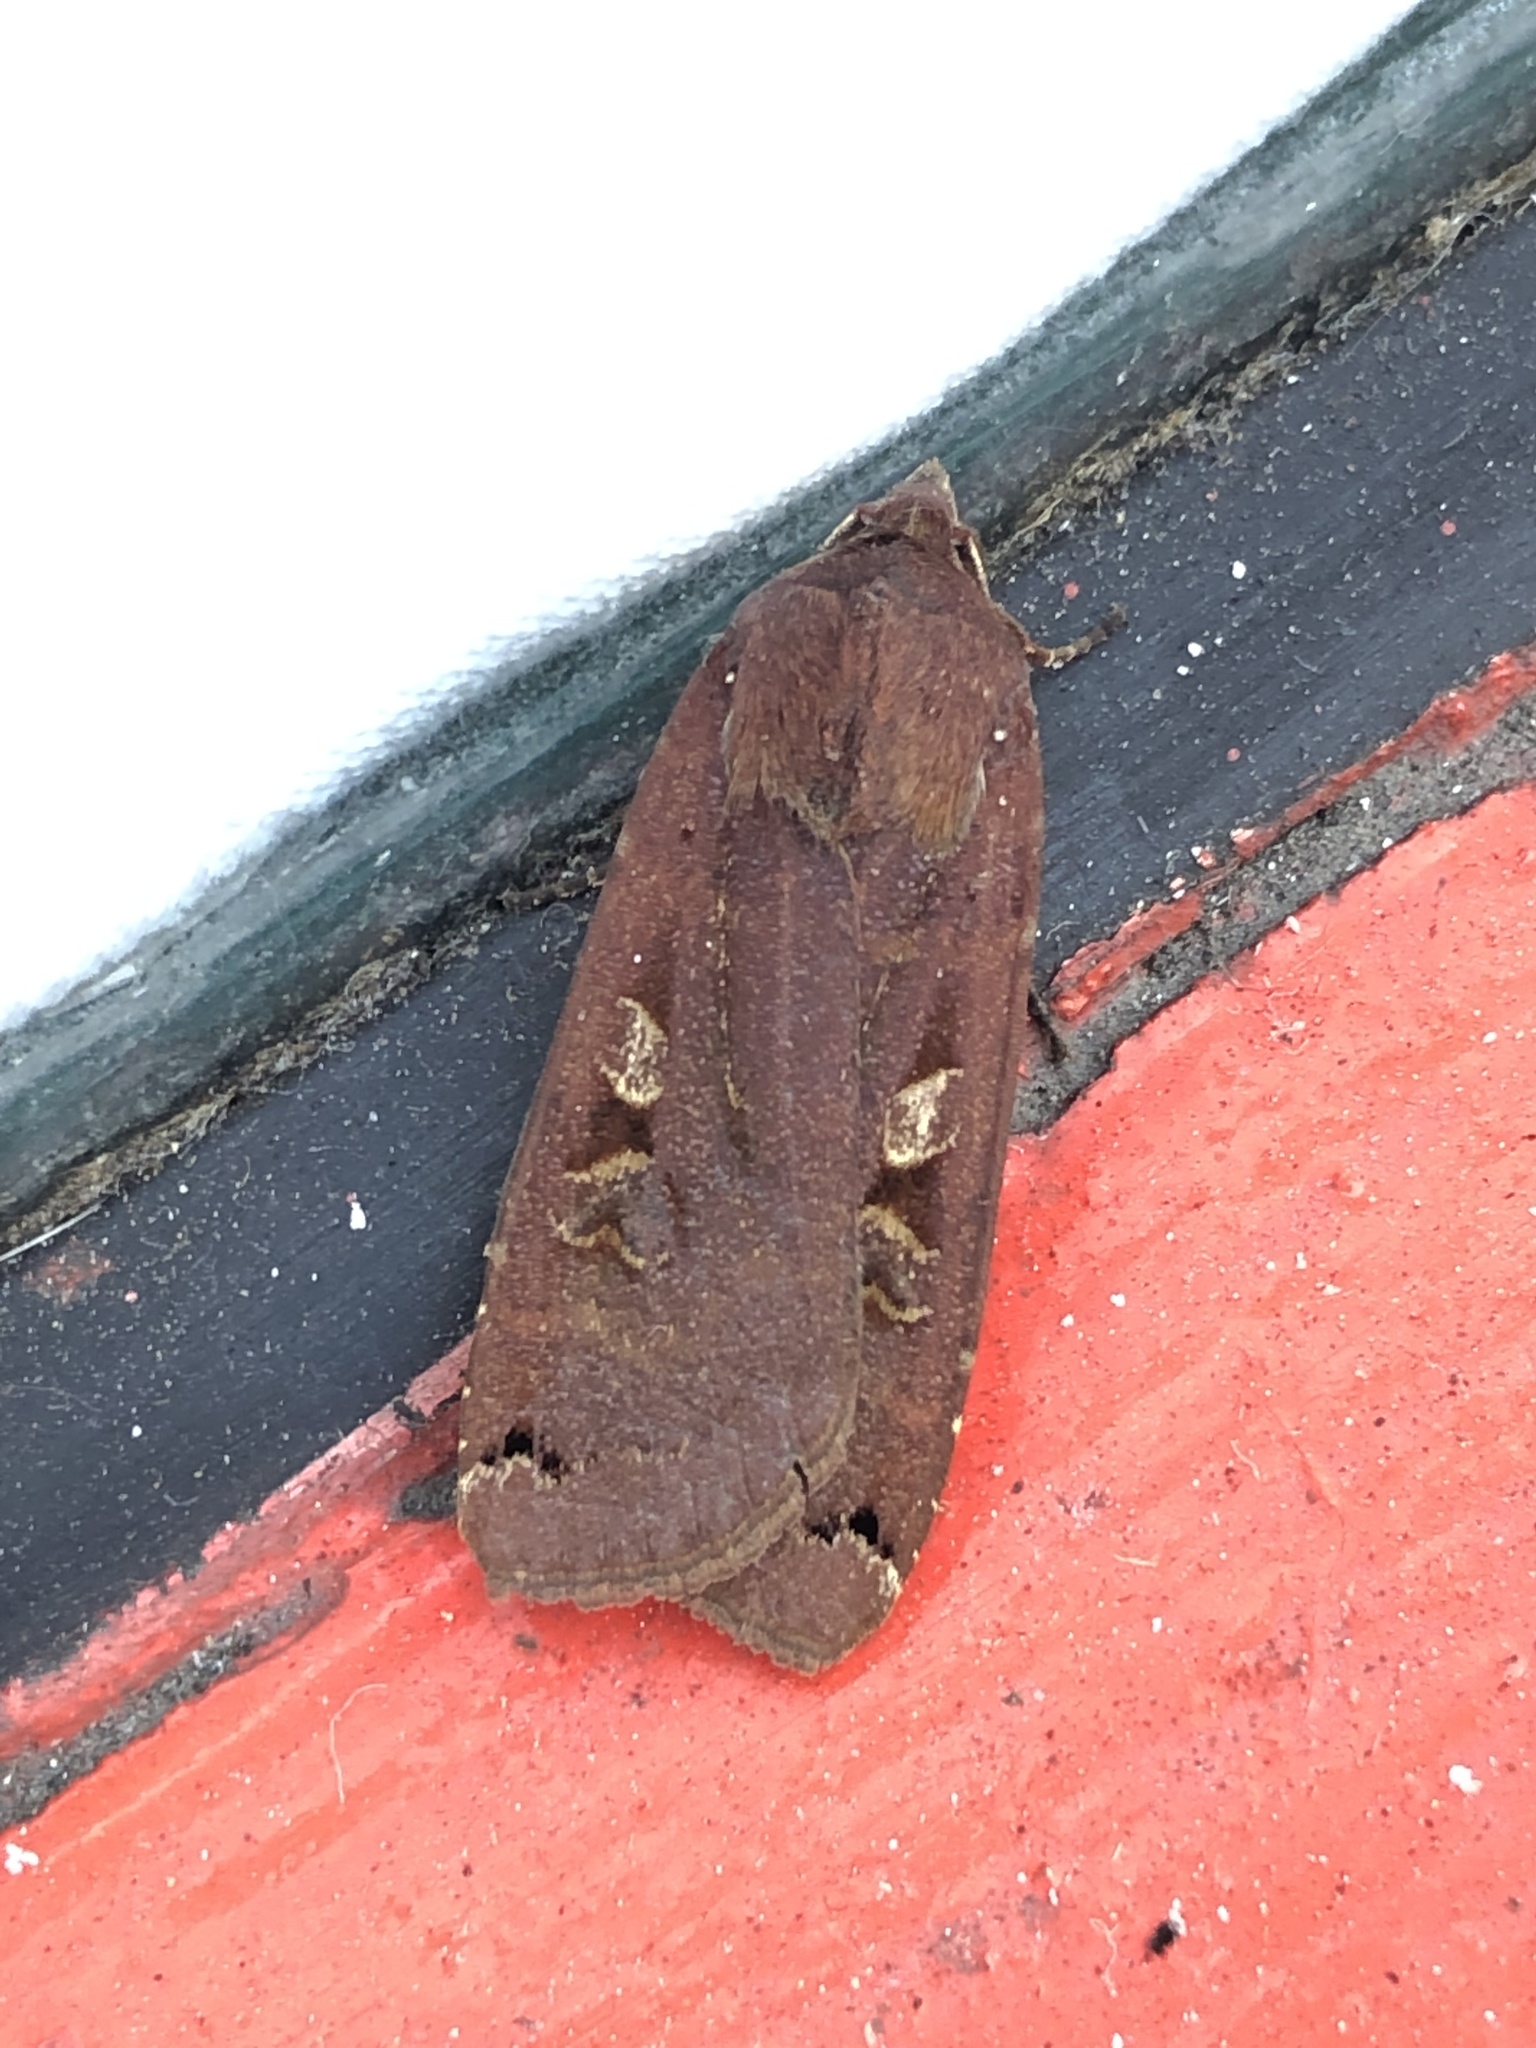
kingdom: Animalia
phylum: Arthropoda
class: Insecta
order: Lepidoptera
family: Noctuidae
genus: Noctua
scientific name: Noctua pronuba
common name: Large yellow underwing
